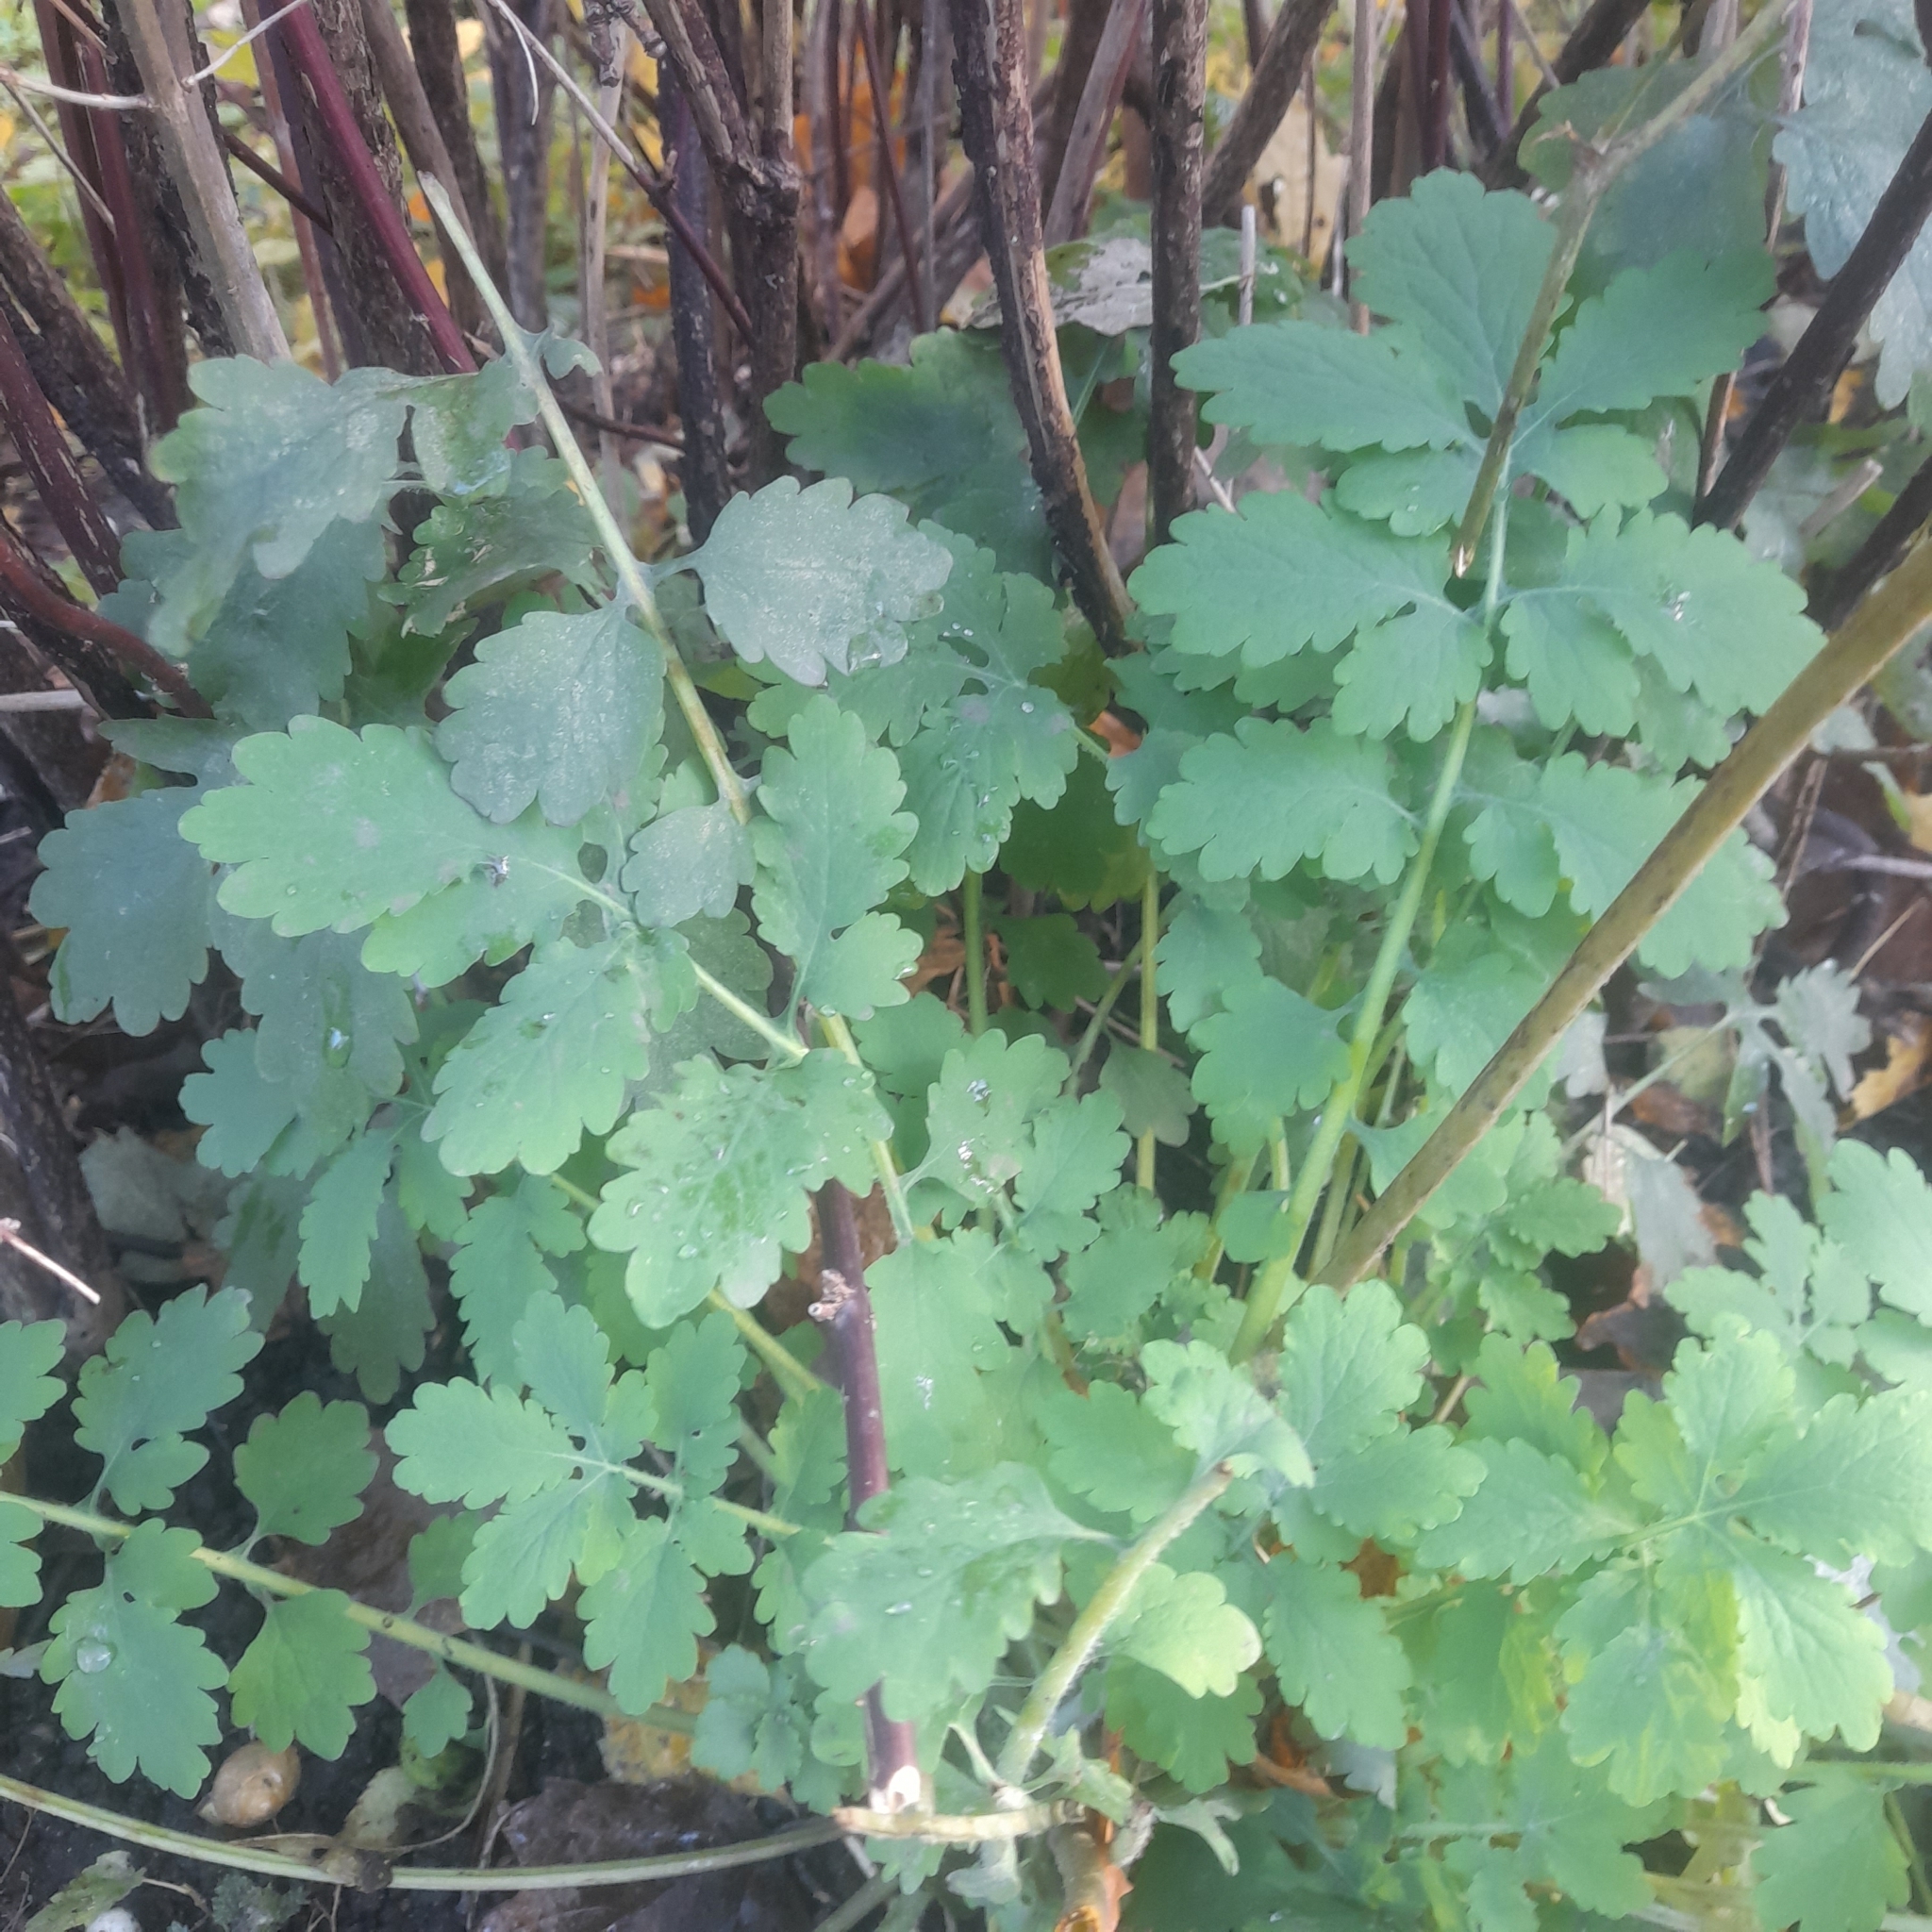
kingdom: Plantae
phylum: Tracheophyta
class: Magnoliopsida
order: Ranunculales
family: Papaveraceae
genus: Chelidonium
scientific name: Chelidonium majus
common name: Greater celandine
